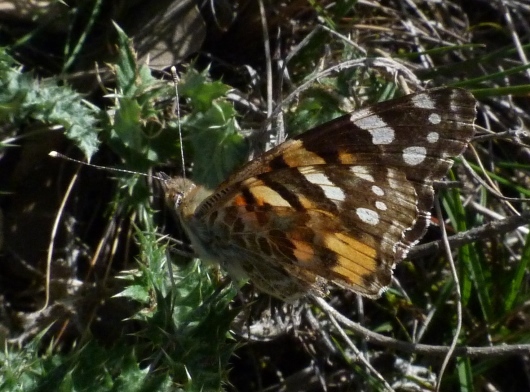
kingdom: Animalia
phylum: Arthropoda
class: Insecta
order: Lepidoptera
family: Nymphalidae
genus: Vanessa
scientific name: Vanessa cardui
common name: Painted lady
